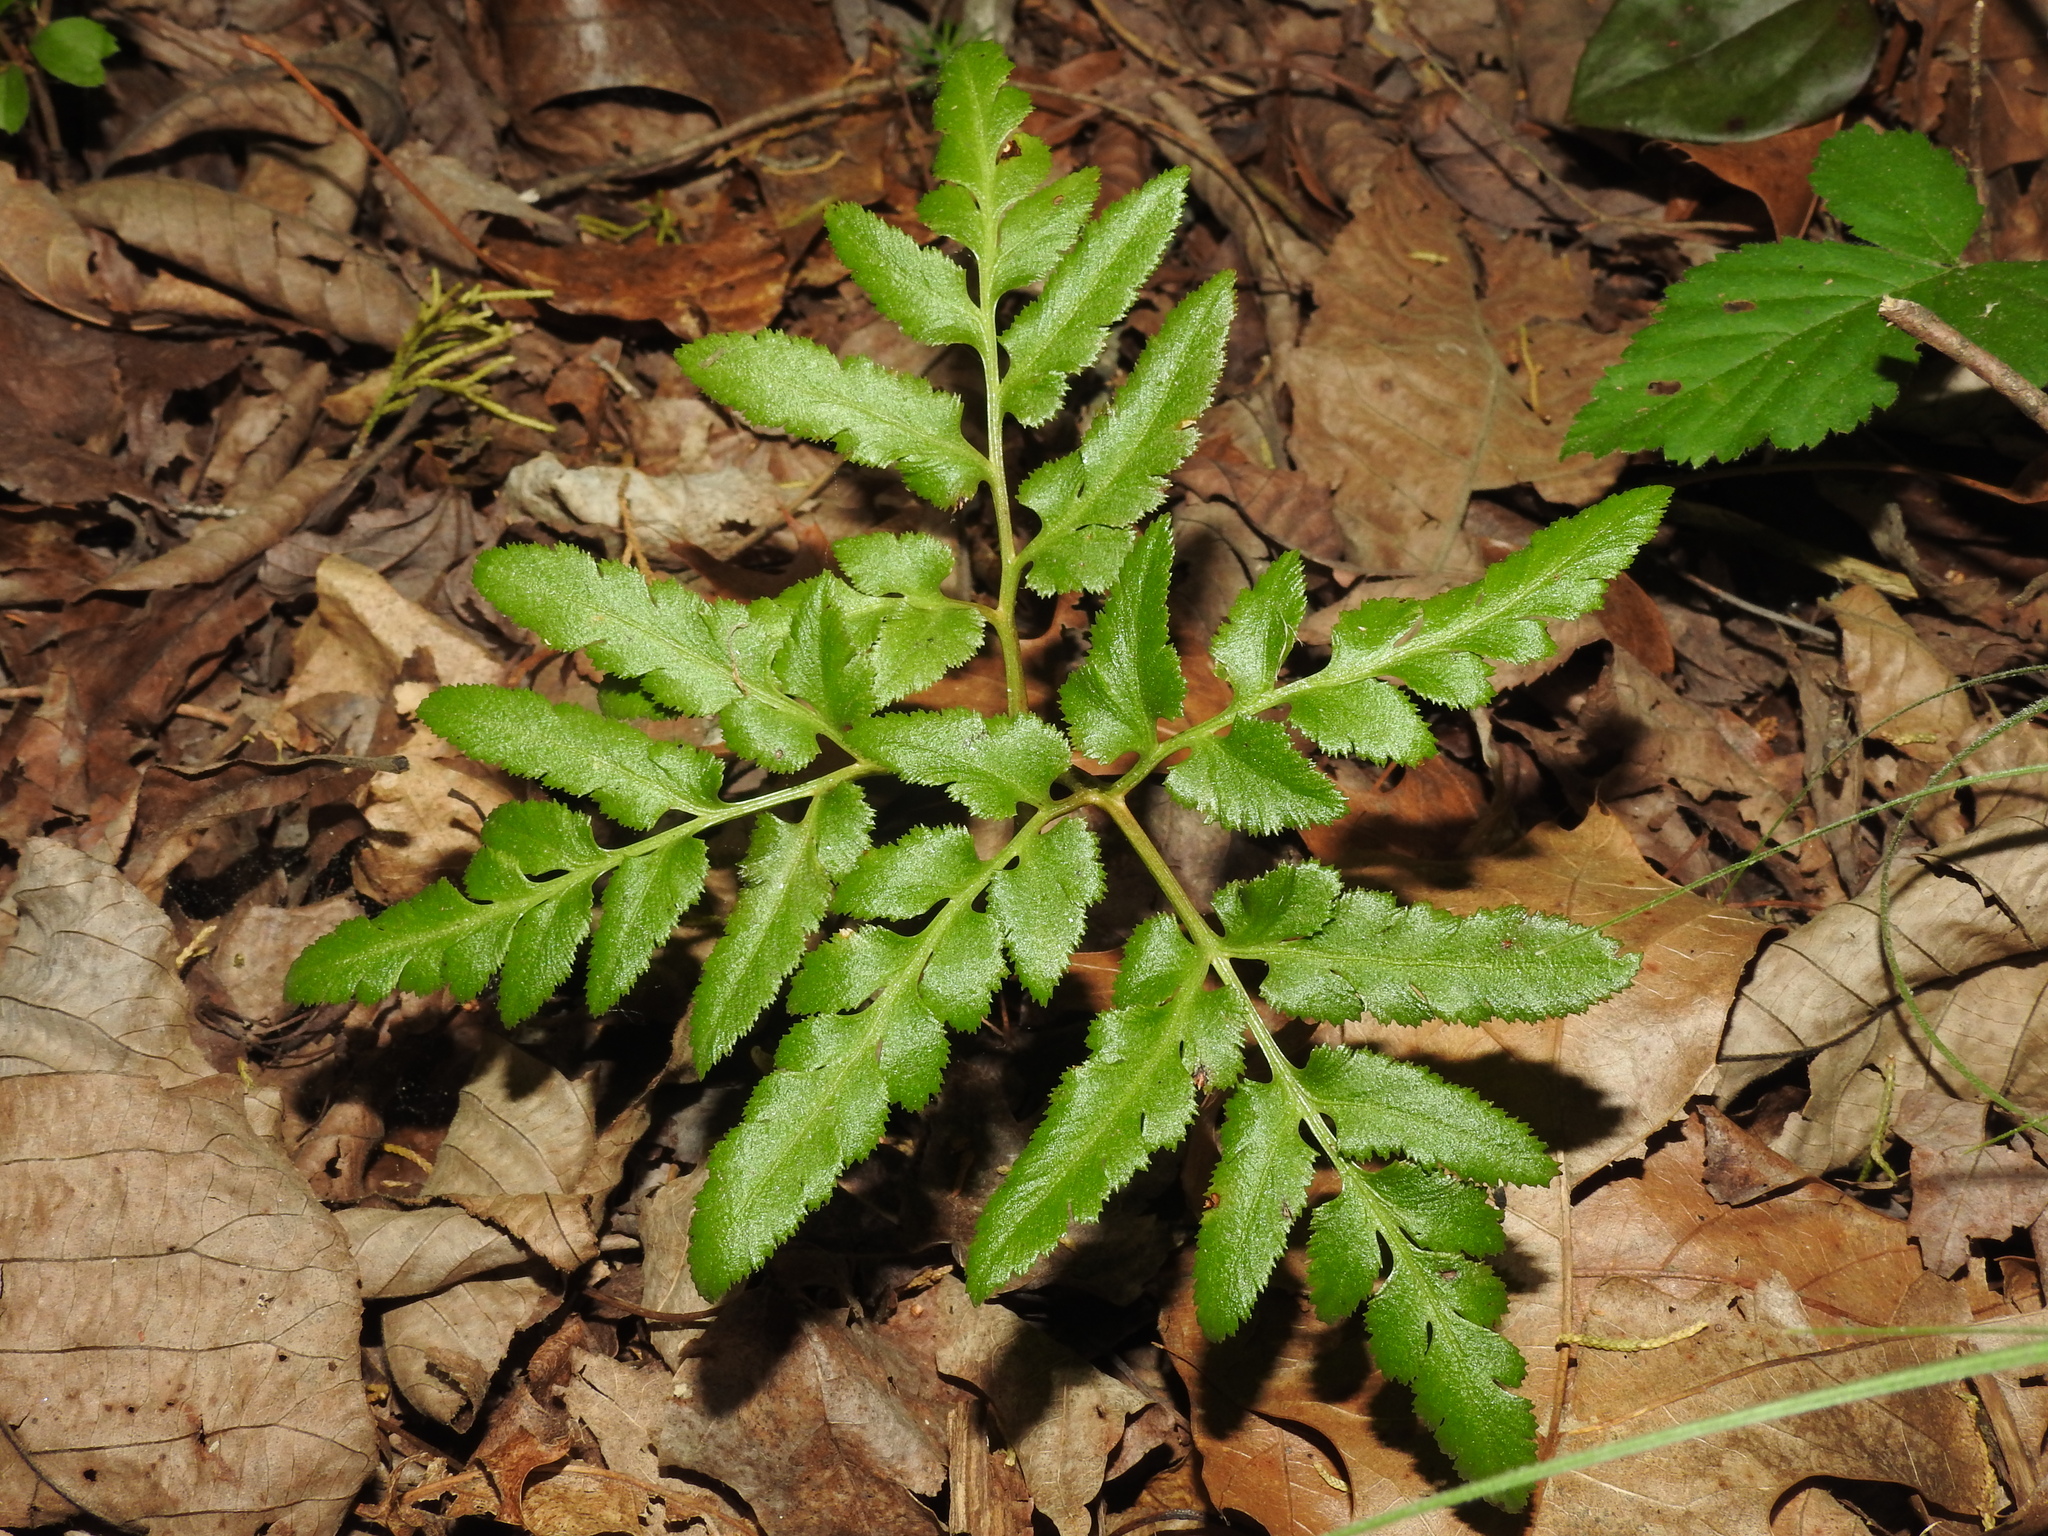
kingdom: Plantae
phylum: Tracheophyta
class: Polypodiopsida
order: Ophioglossales
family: Ophioglossaceae
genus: Sceptridium
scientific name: Sceptridium dissectum
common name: Cut-leaved grapefern
